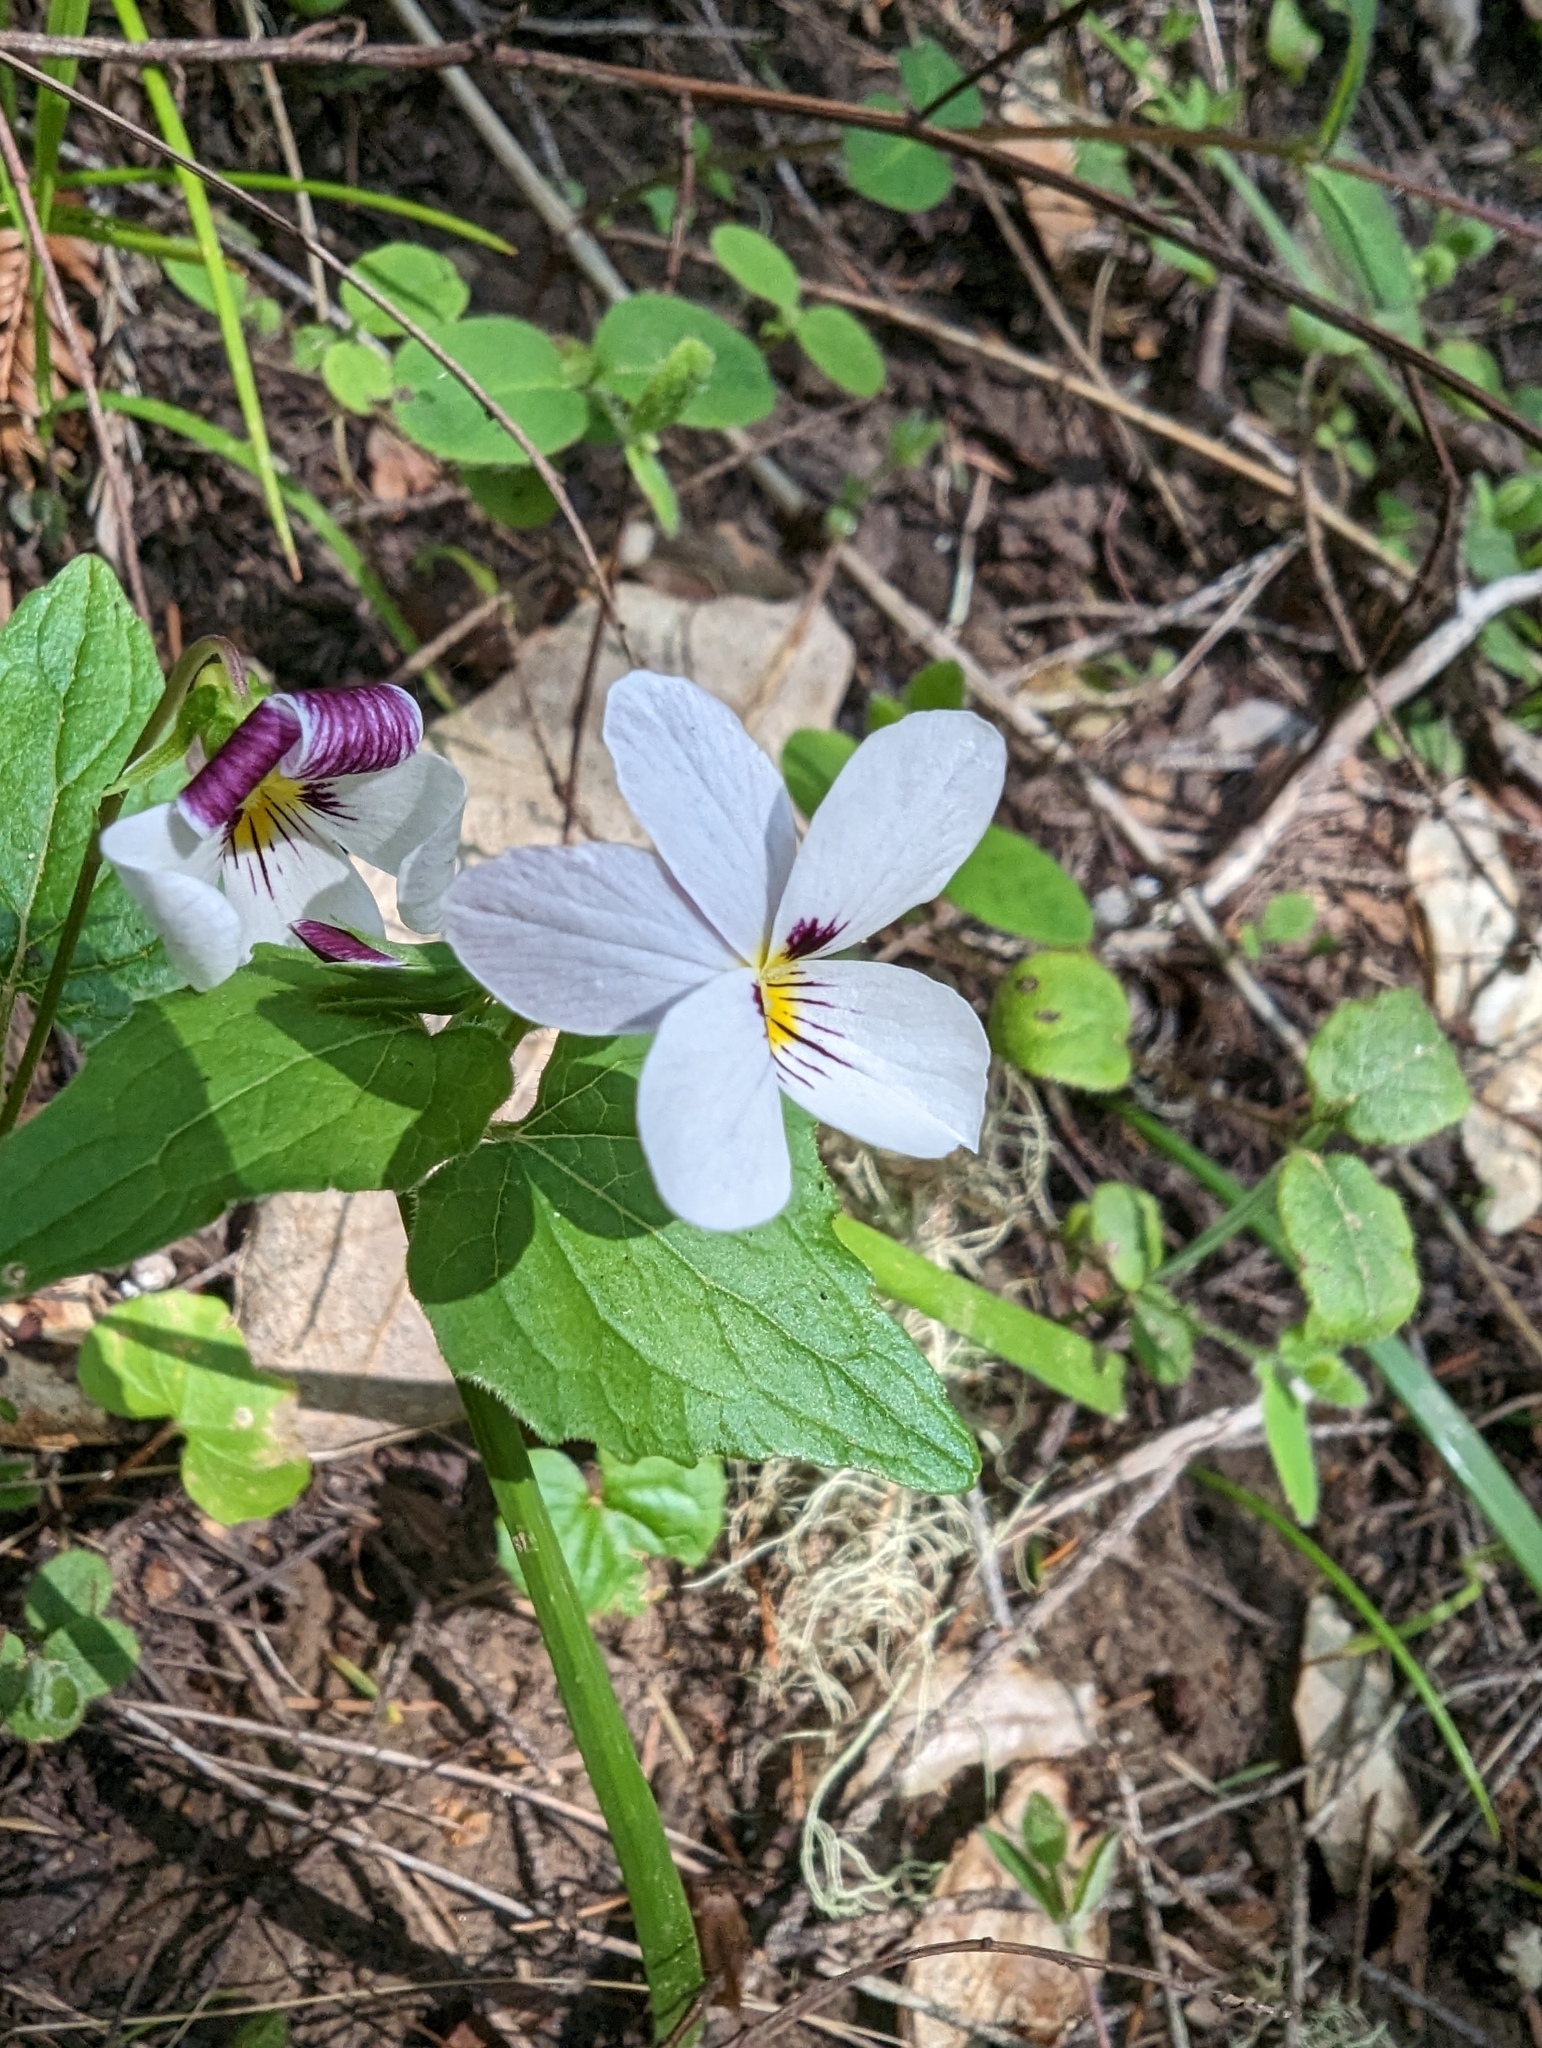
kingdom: Plantae
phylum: Tracheophyta
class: Magnoliopsida
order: Malpighiales
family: Violaceae
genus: Viola
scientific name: Viola ocellata
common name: Western heart's ease
